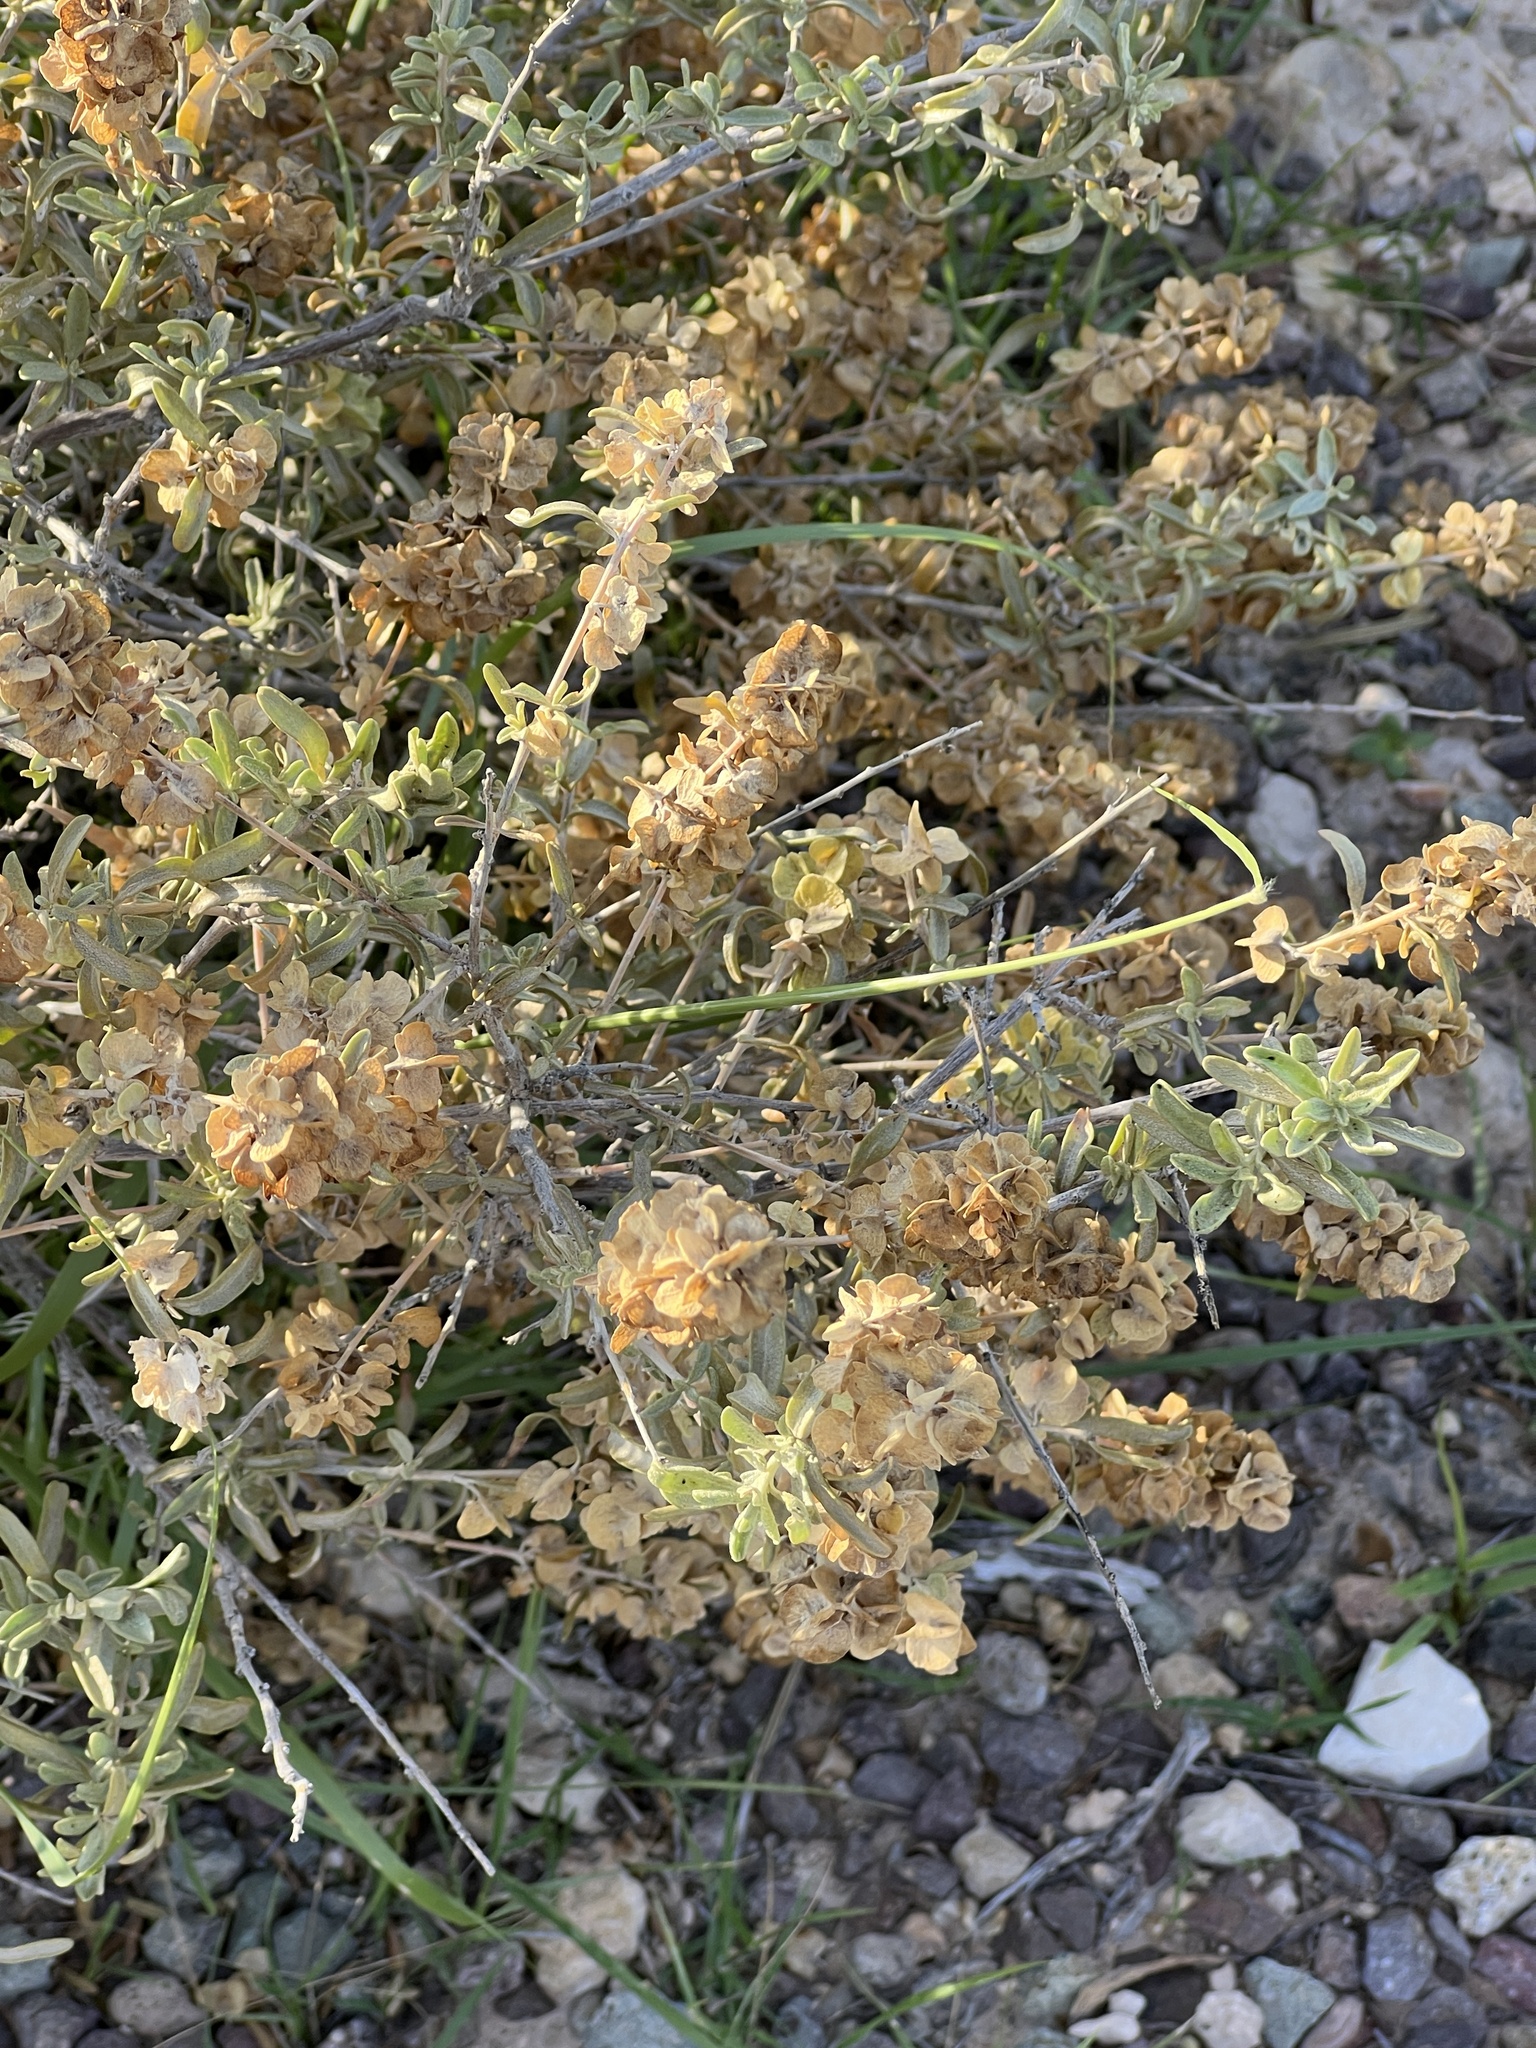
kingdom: Plantae
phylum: Tracheophyta
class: Magnoliopsida
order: Caryophyllales
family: Amaranthaceae
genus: Atriplex
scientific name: Atriplex canescens
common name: Four-wing saltbush
